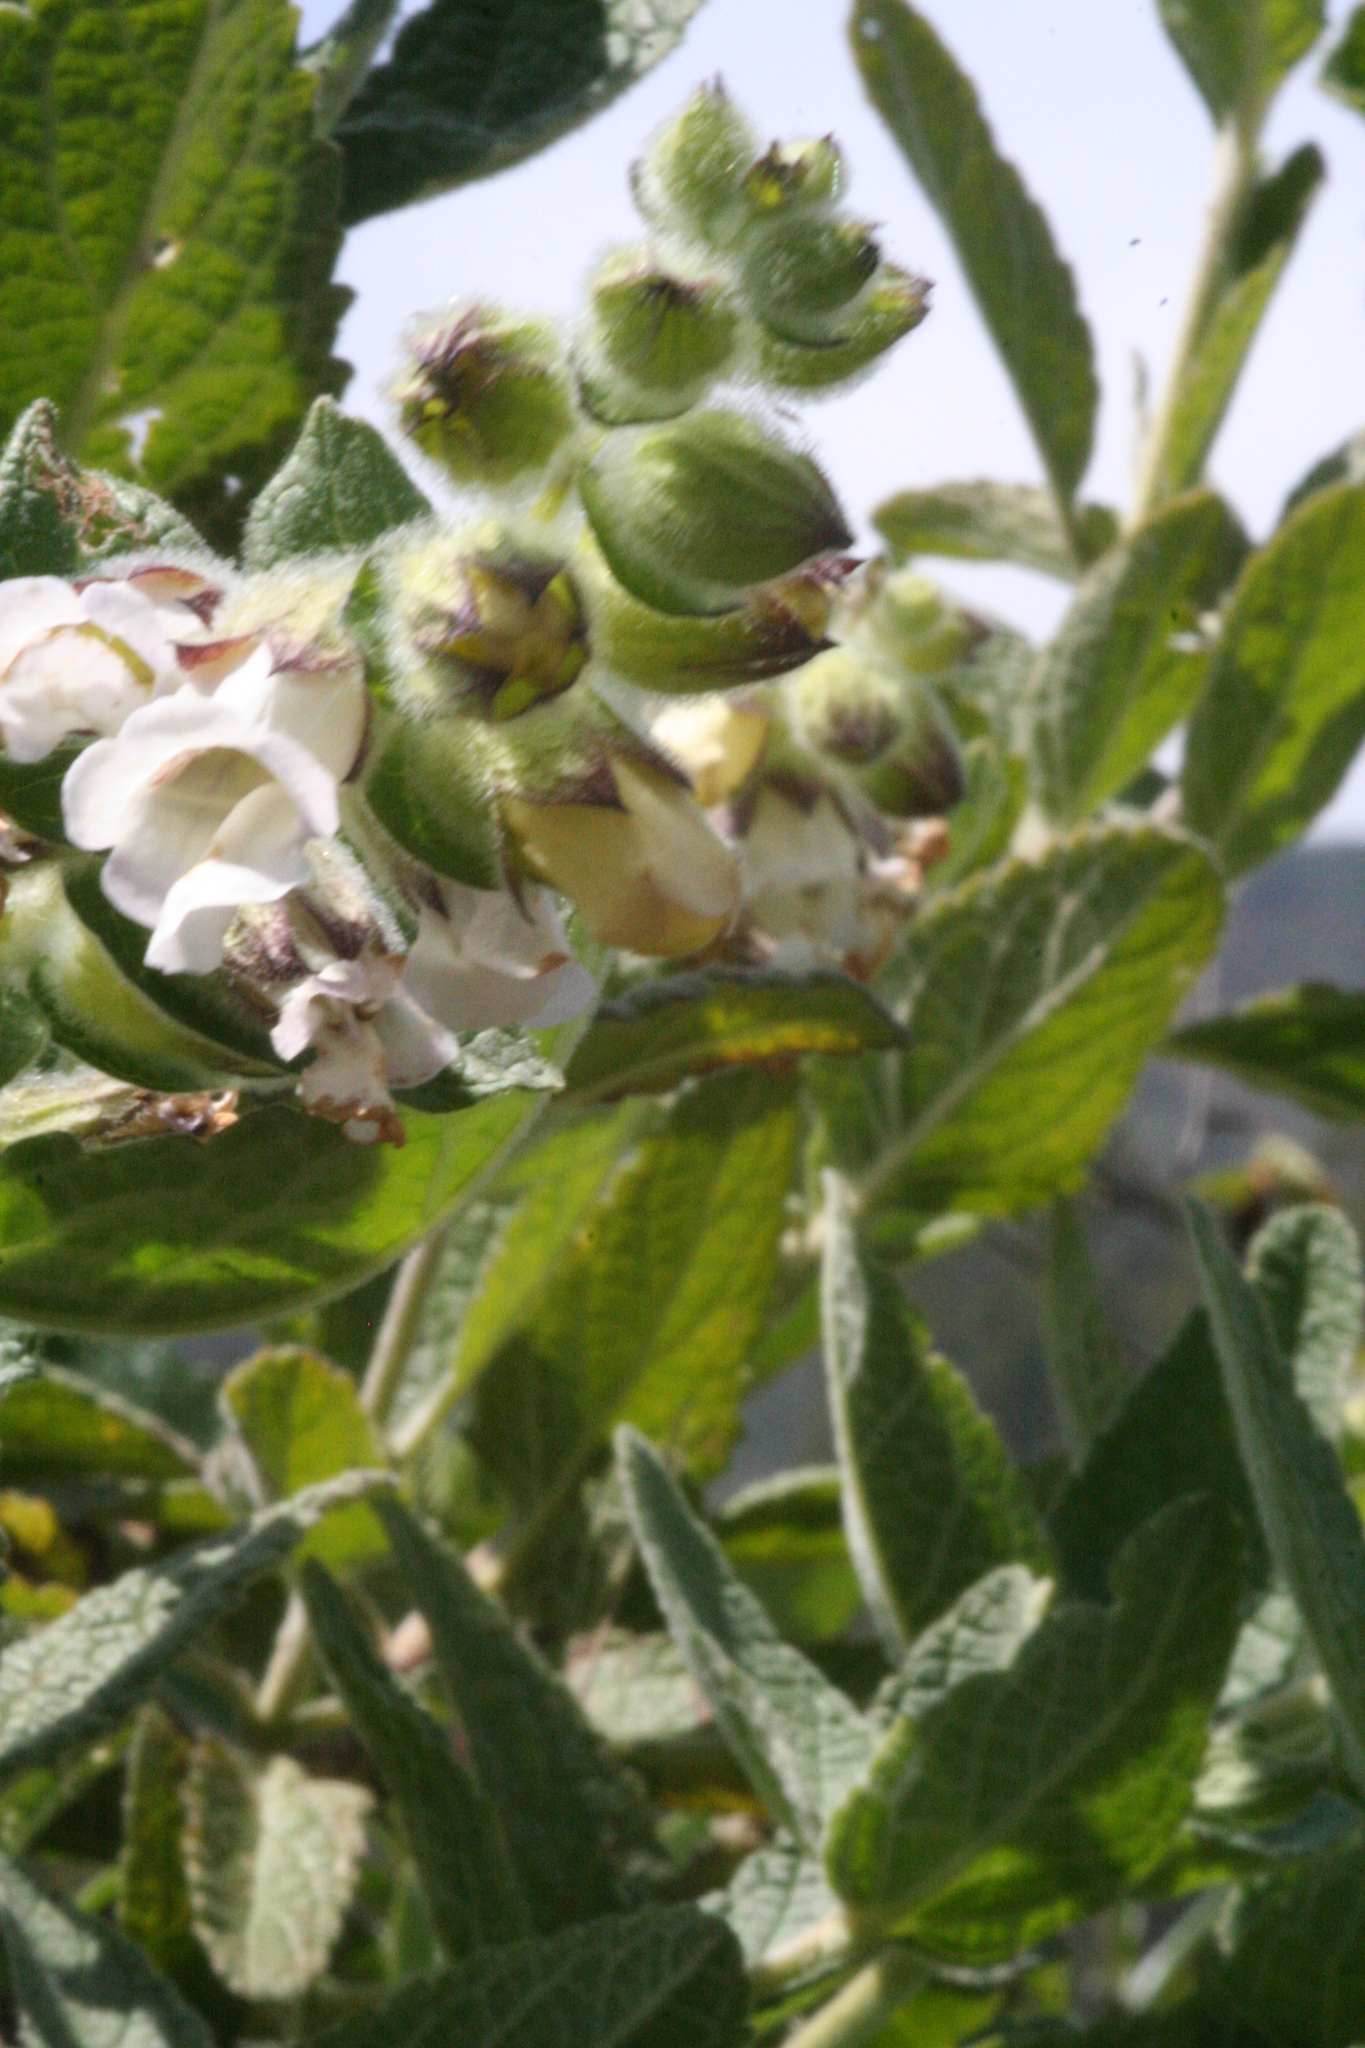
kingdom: Plantae
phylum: Tracheophyta
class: Magnoliopsida
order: Lamiales
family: Lamiaceae
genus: Lepechinia
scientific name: Lepechinia calycina
